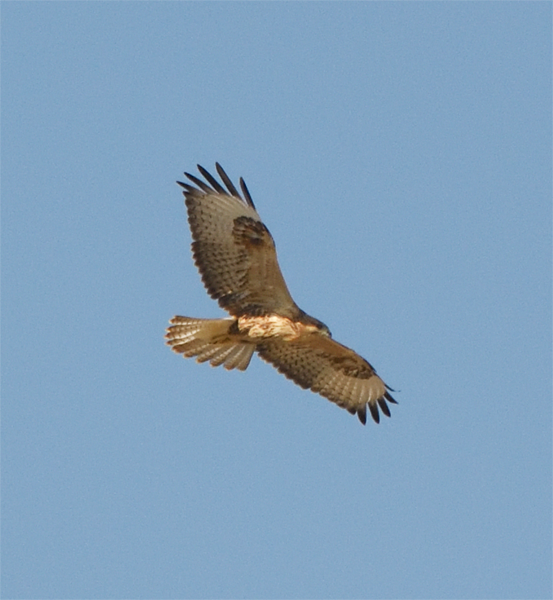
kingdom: Animalia
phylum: Chordata
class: Aves
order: Accipitriformes
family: Accipitridae
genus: Buteo
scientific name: Buteo rufinus
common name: Long-legged buzzard
